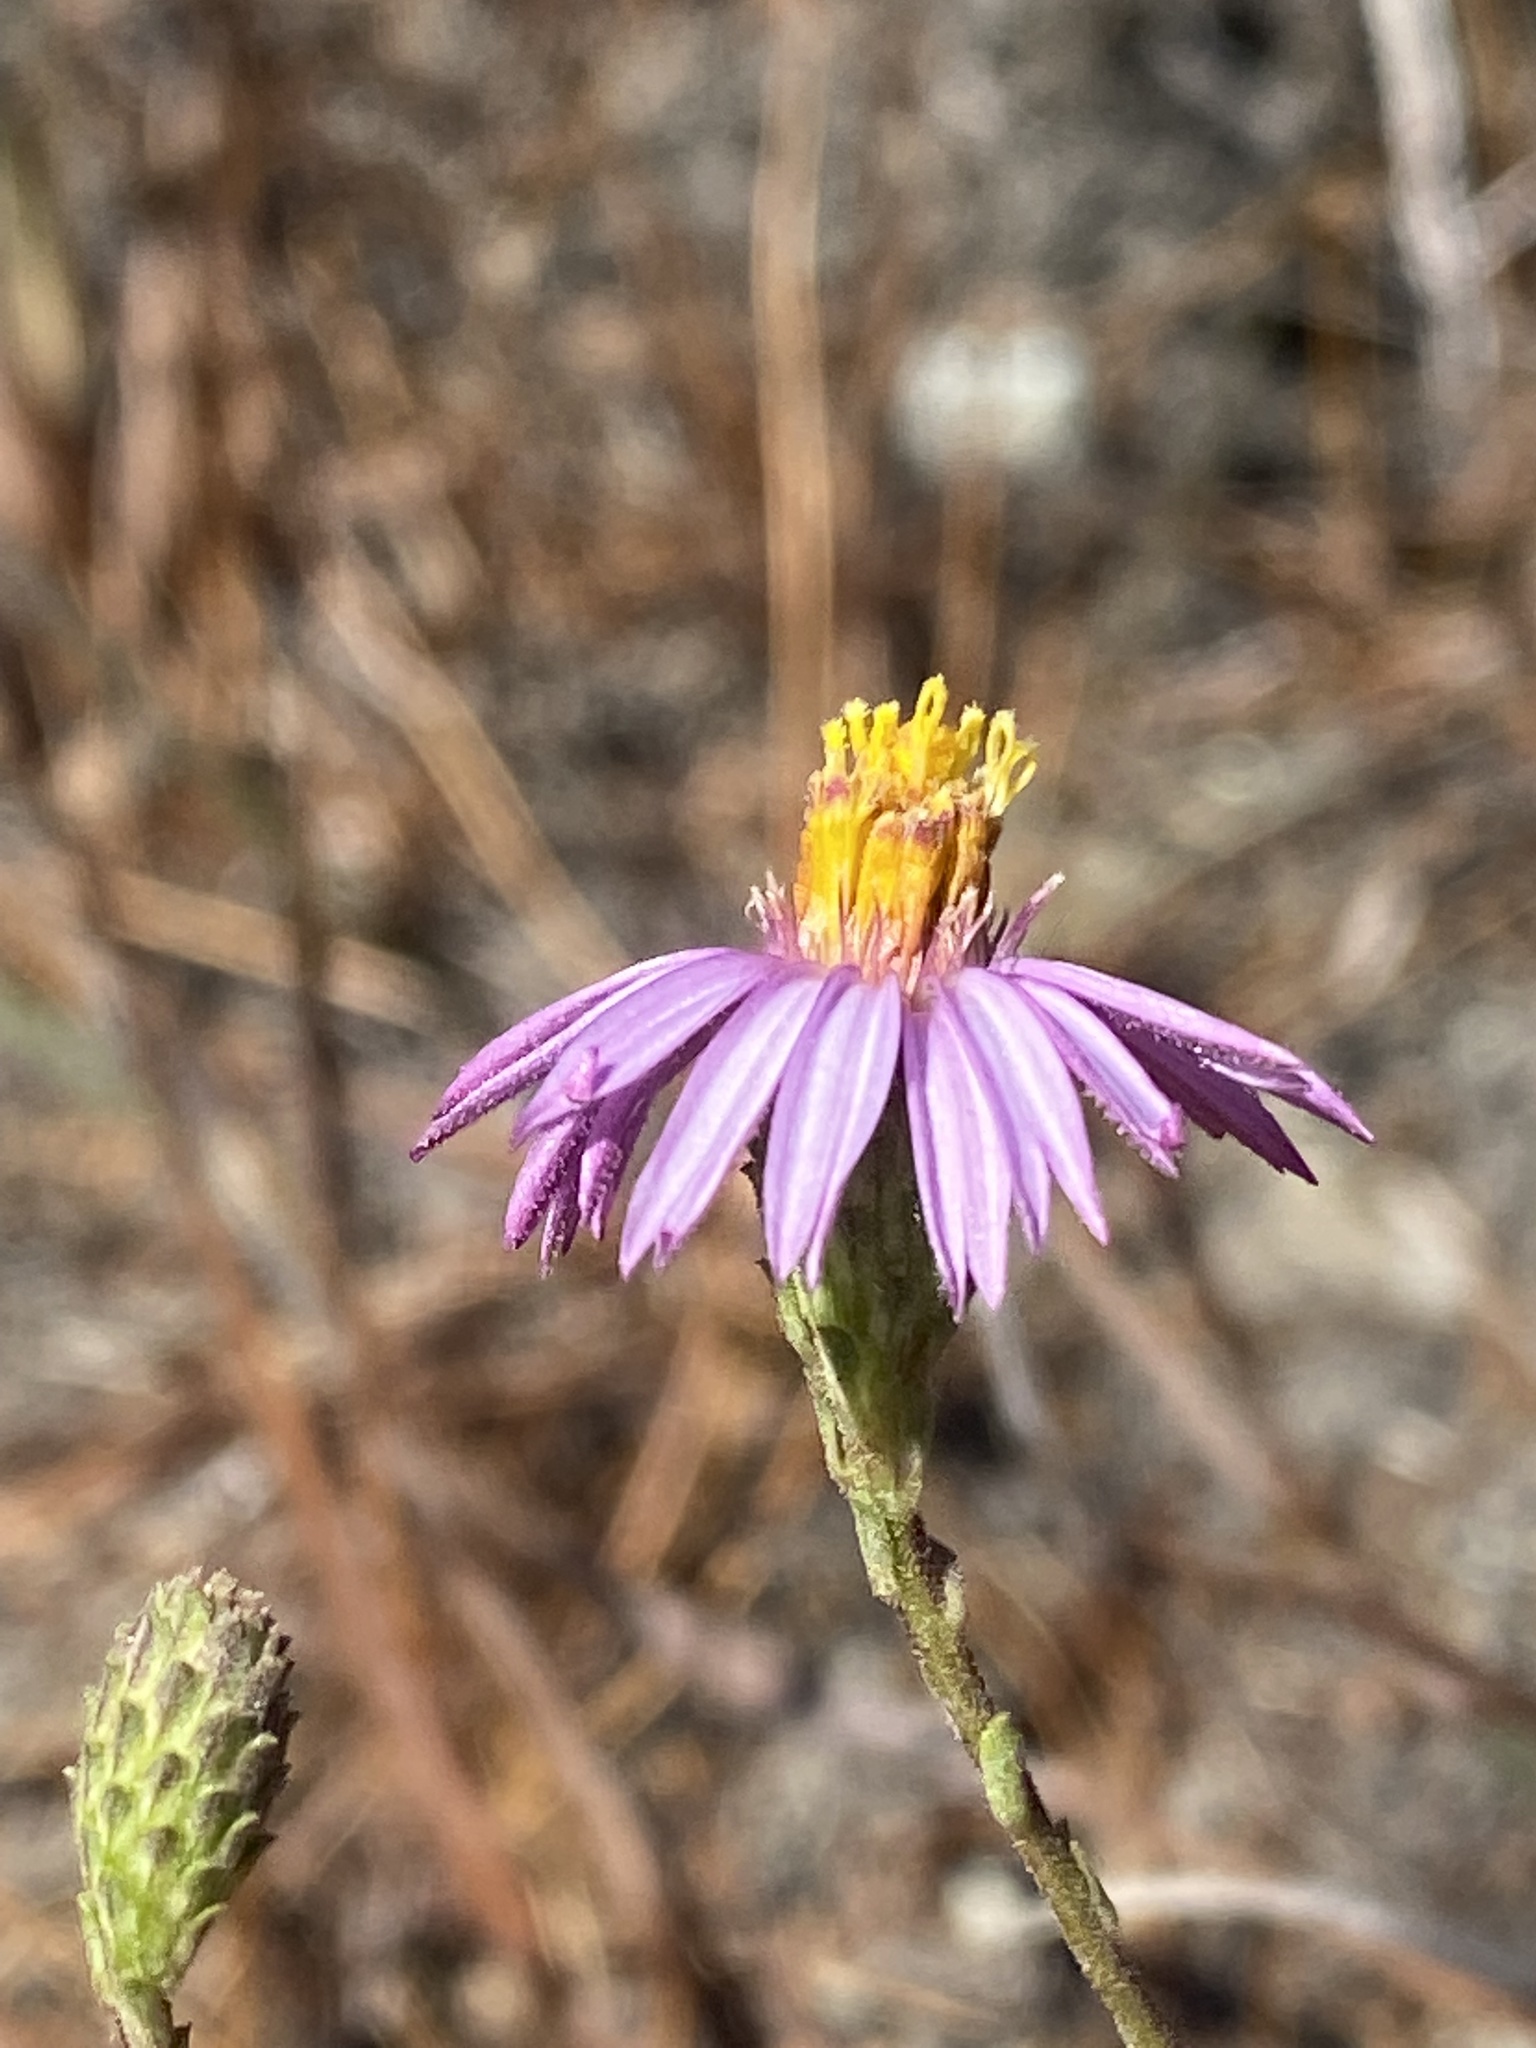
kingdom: Plantae
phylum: Tracheophyta
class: Magnoliopsida
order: Asterales
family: Asteraceae
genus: Corethrogyne
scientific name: Corethrogyne filaginifolia
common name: Sand-aster
